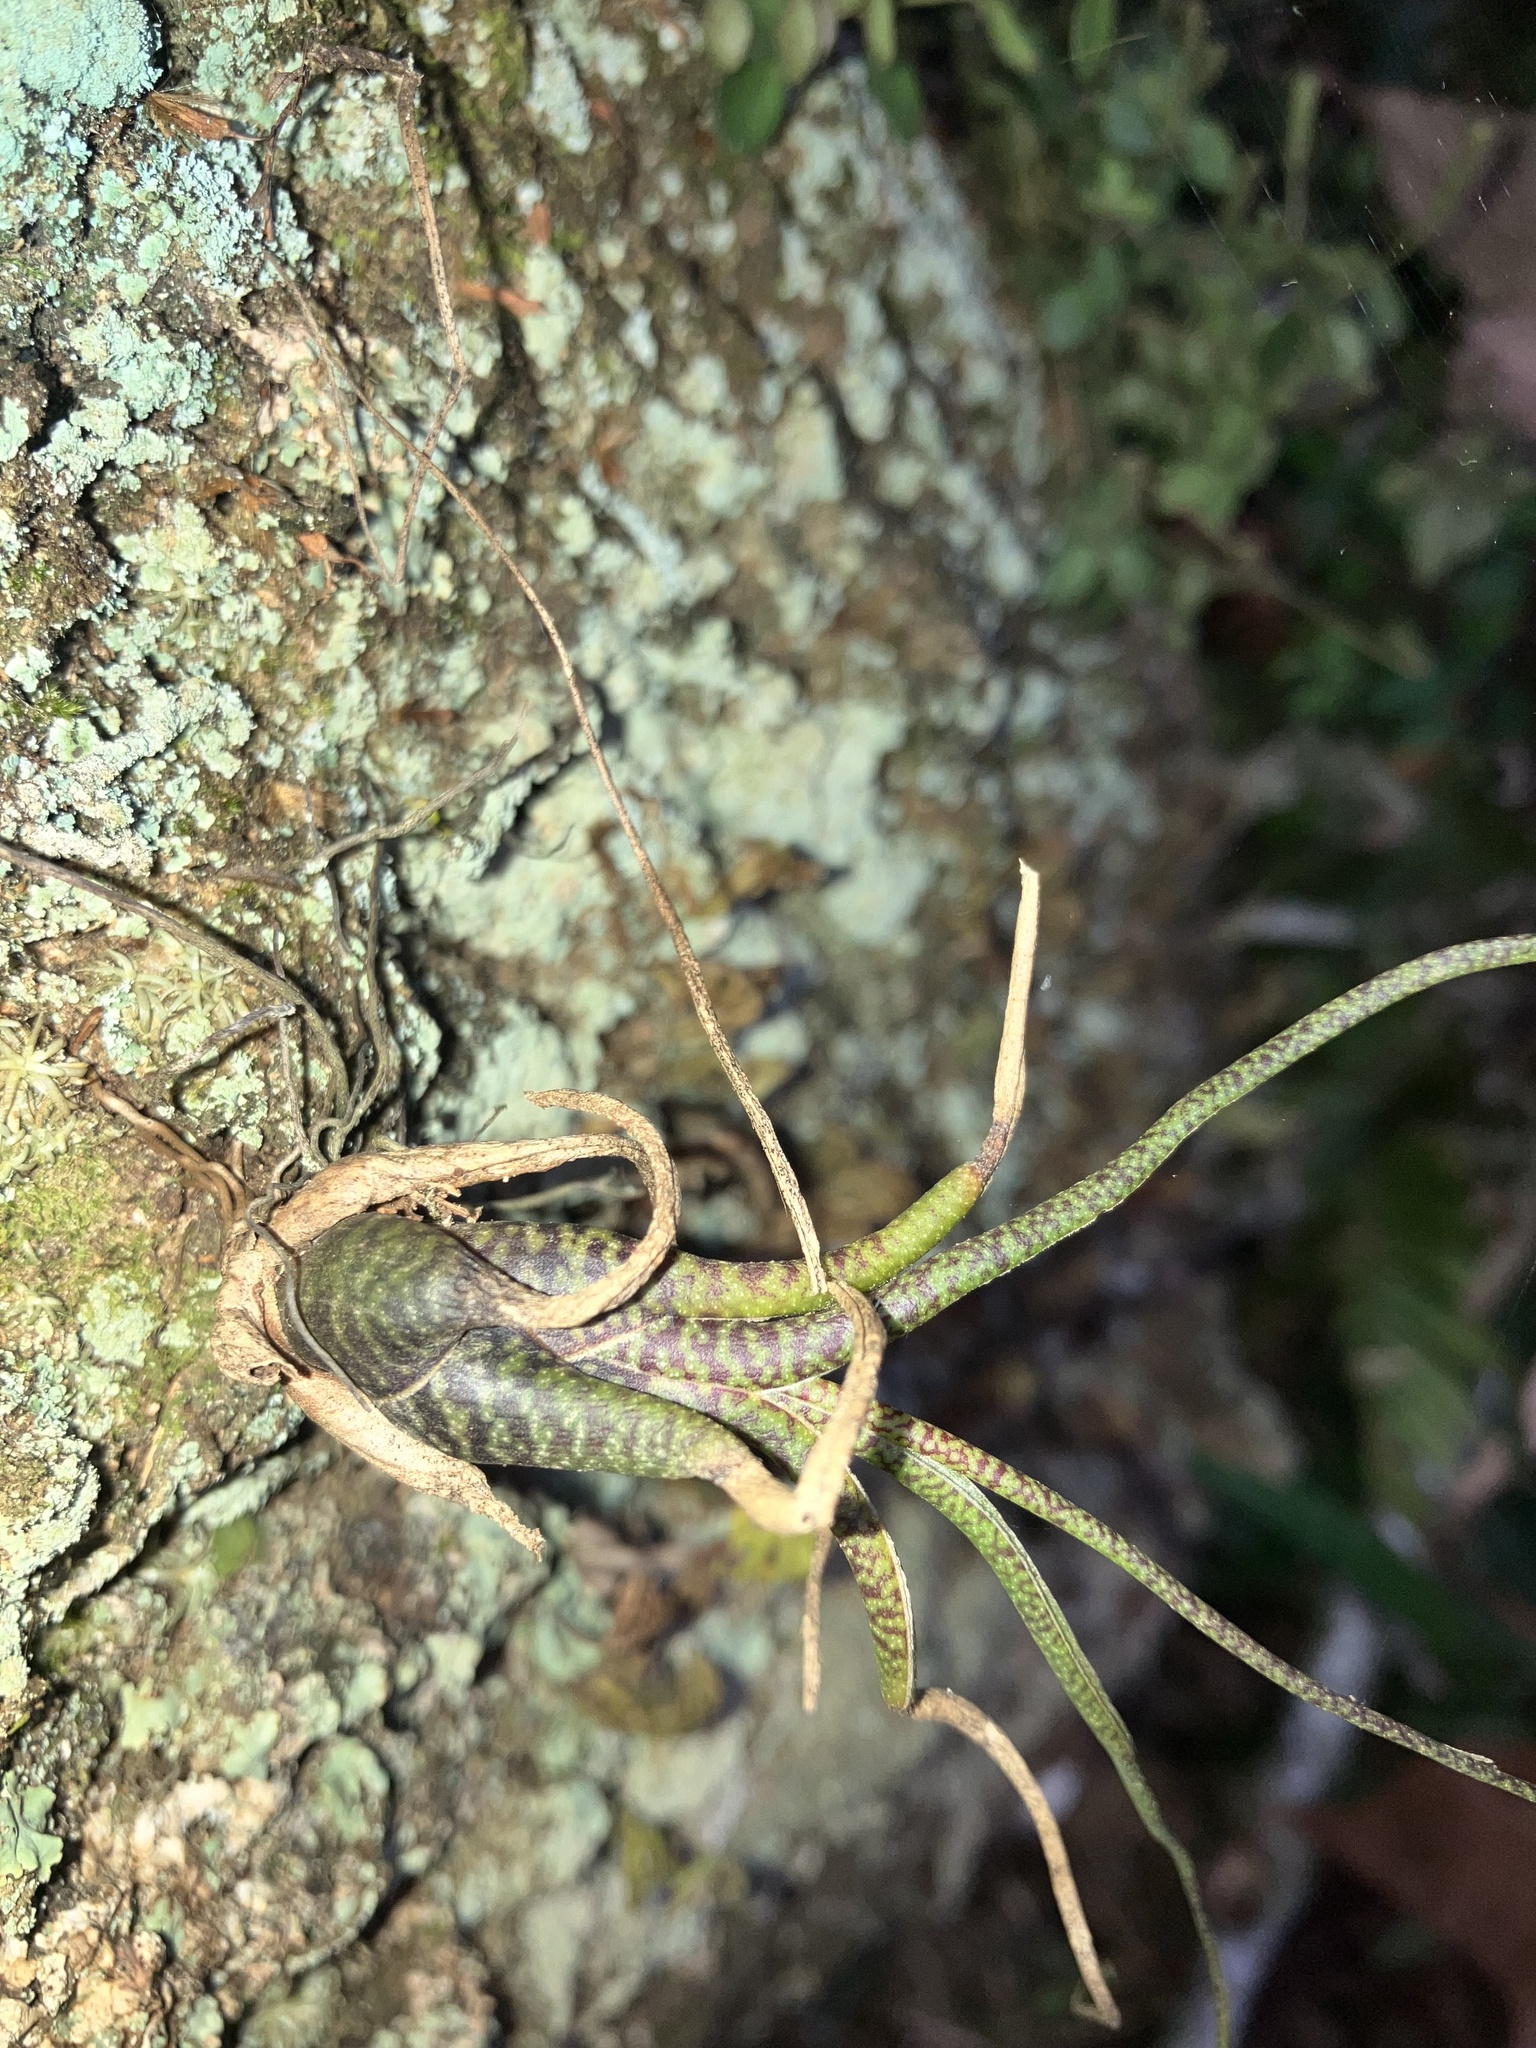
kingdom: Plantae
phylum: Tracheophyta
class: Liliopsida
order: Poales
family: Bromeliaceae
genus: Tillandsia
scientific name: Tillandsia butzii
